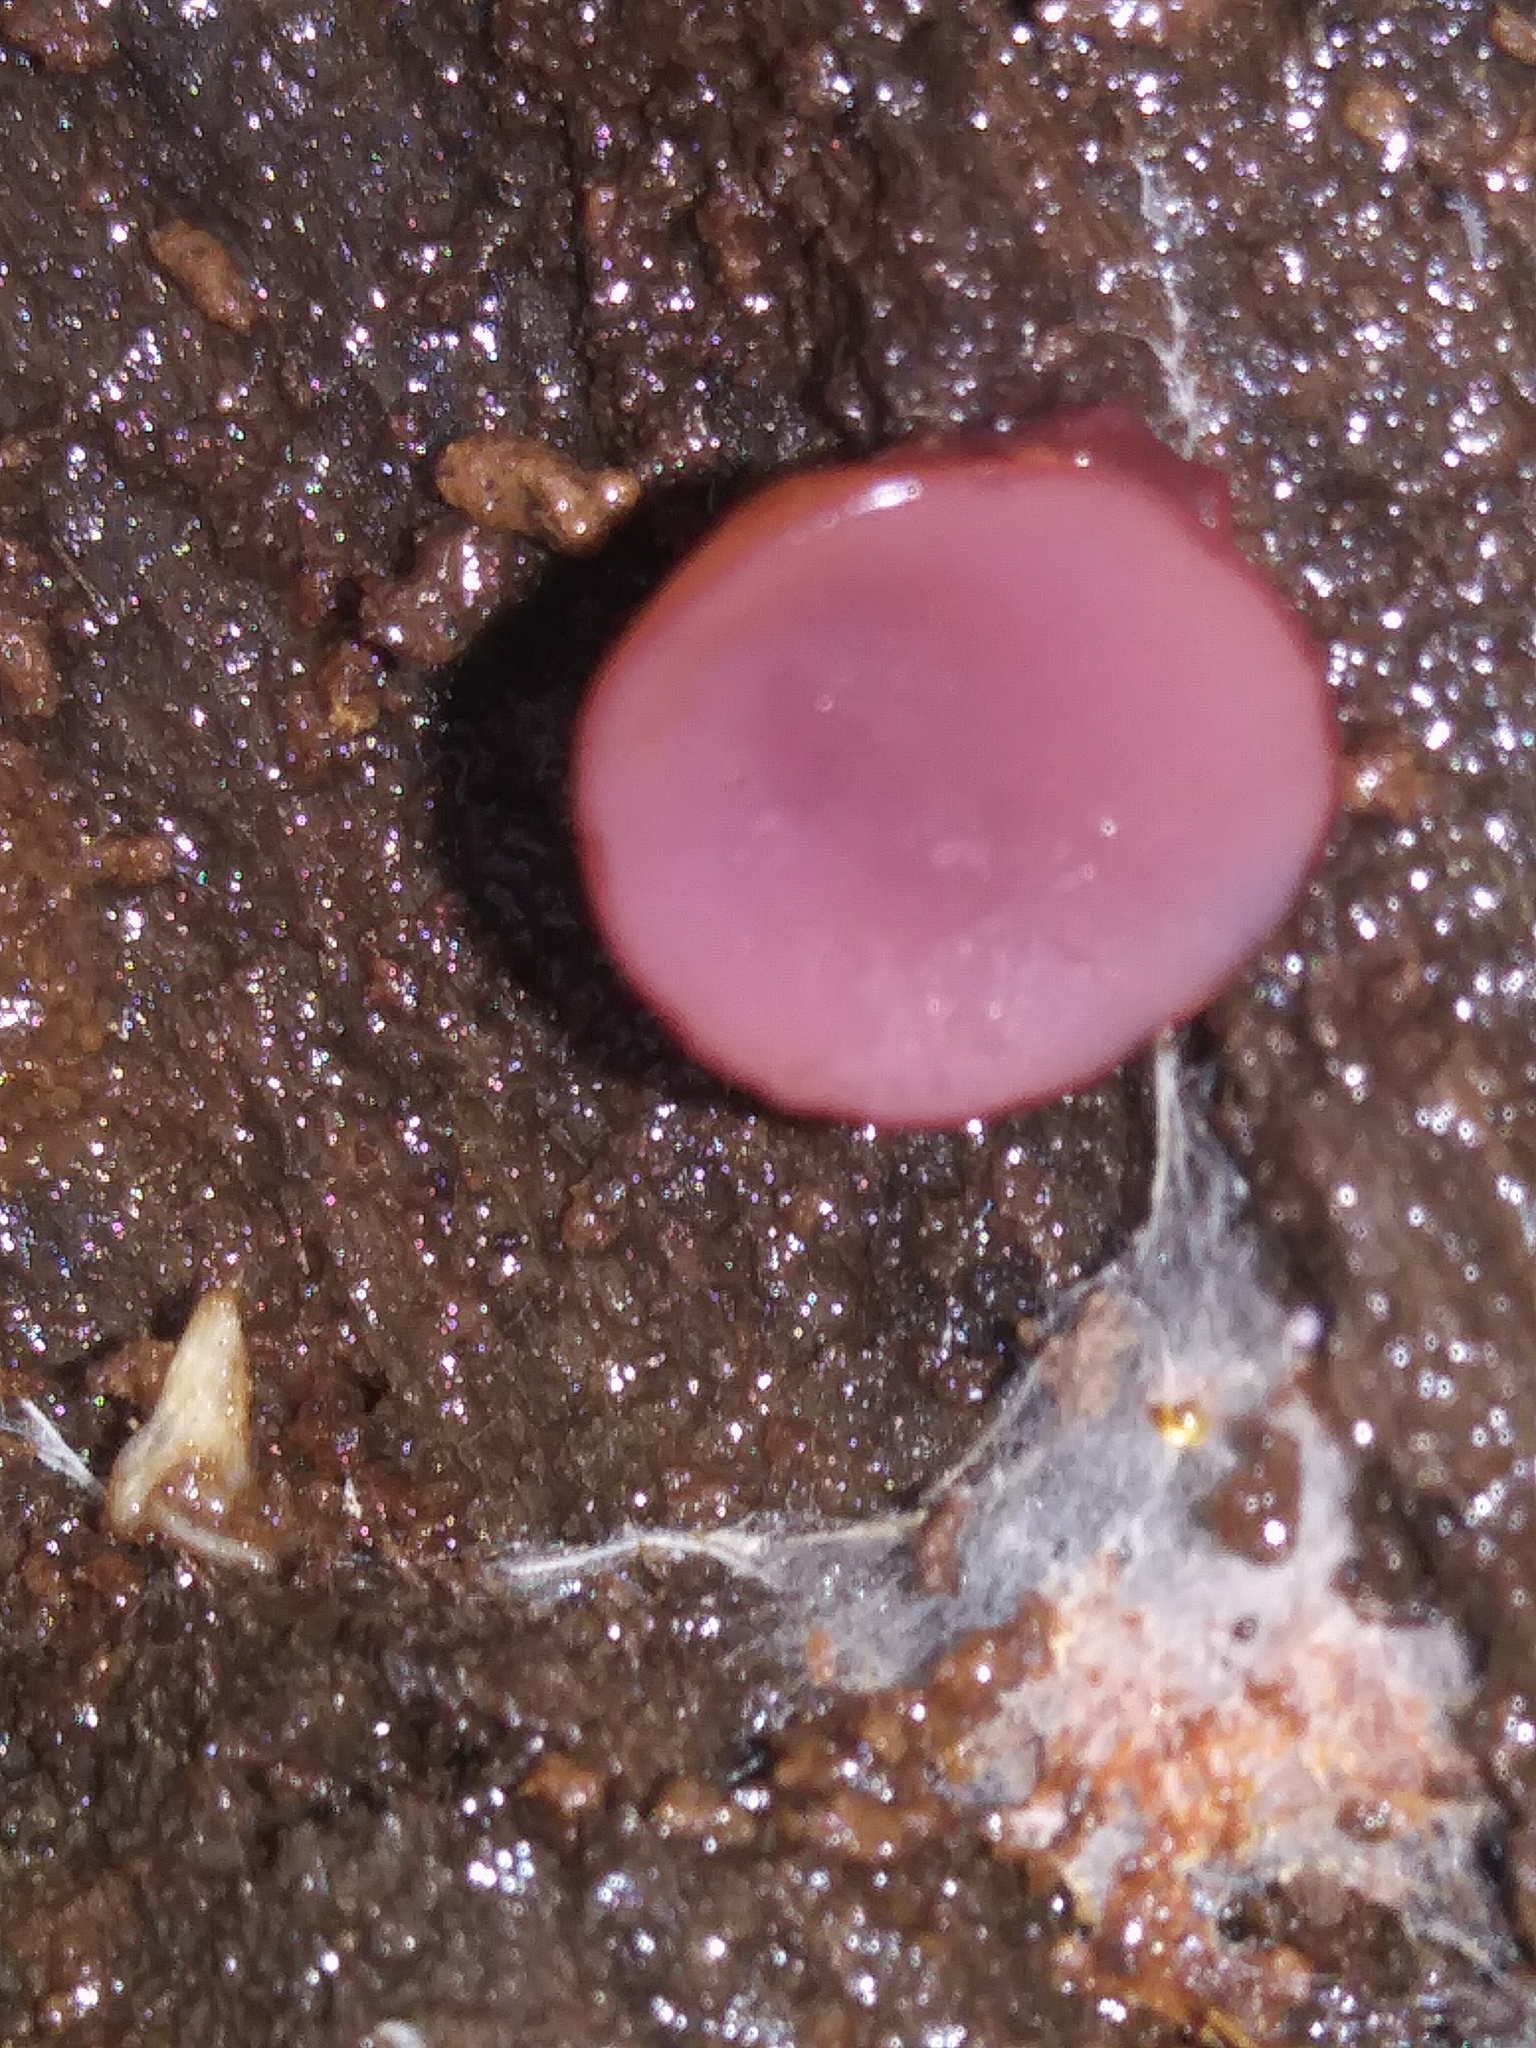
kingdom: Fungi
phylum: Ascomycota
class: Leotiomycetes
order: Helotiales
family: Gelatinodiscaceae
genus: Ascocoryne
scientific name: Ascocoryne sarcoides
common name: Purple jellydisc
